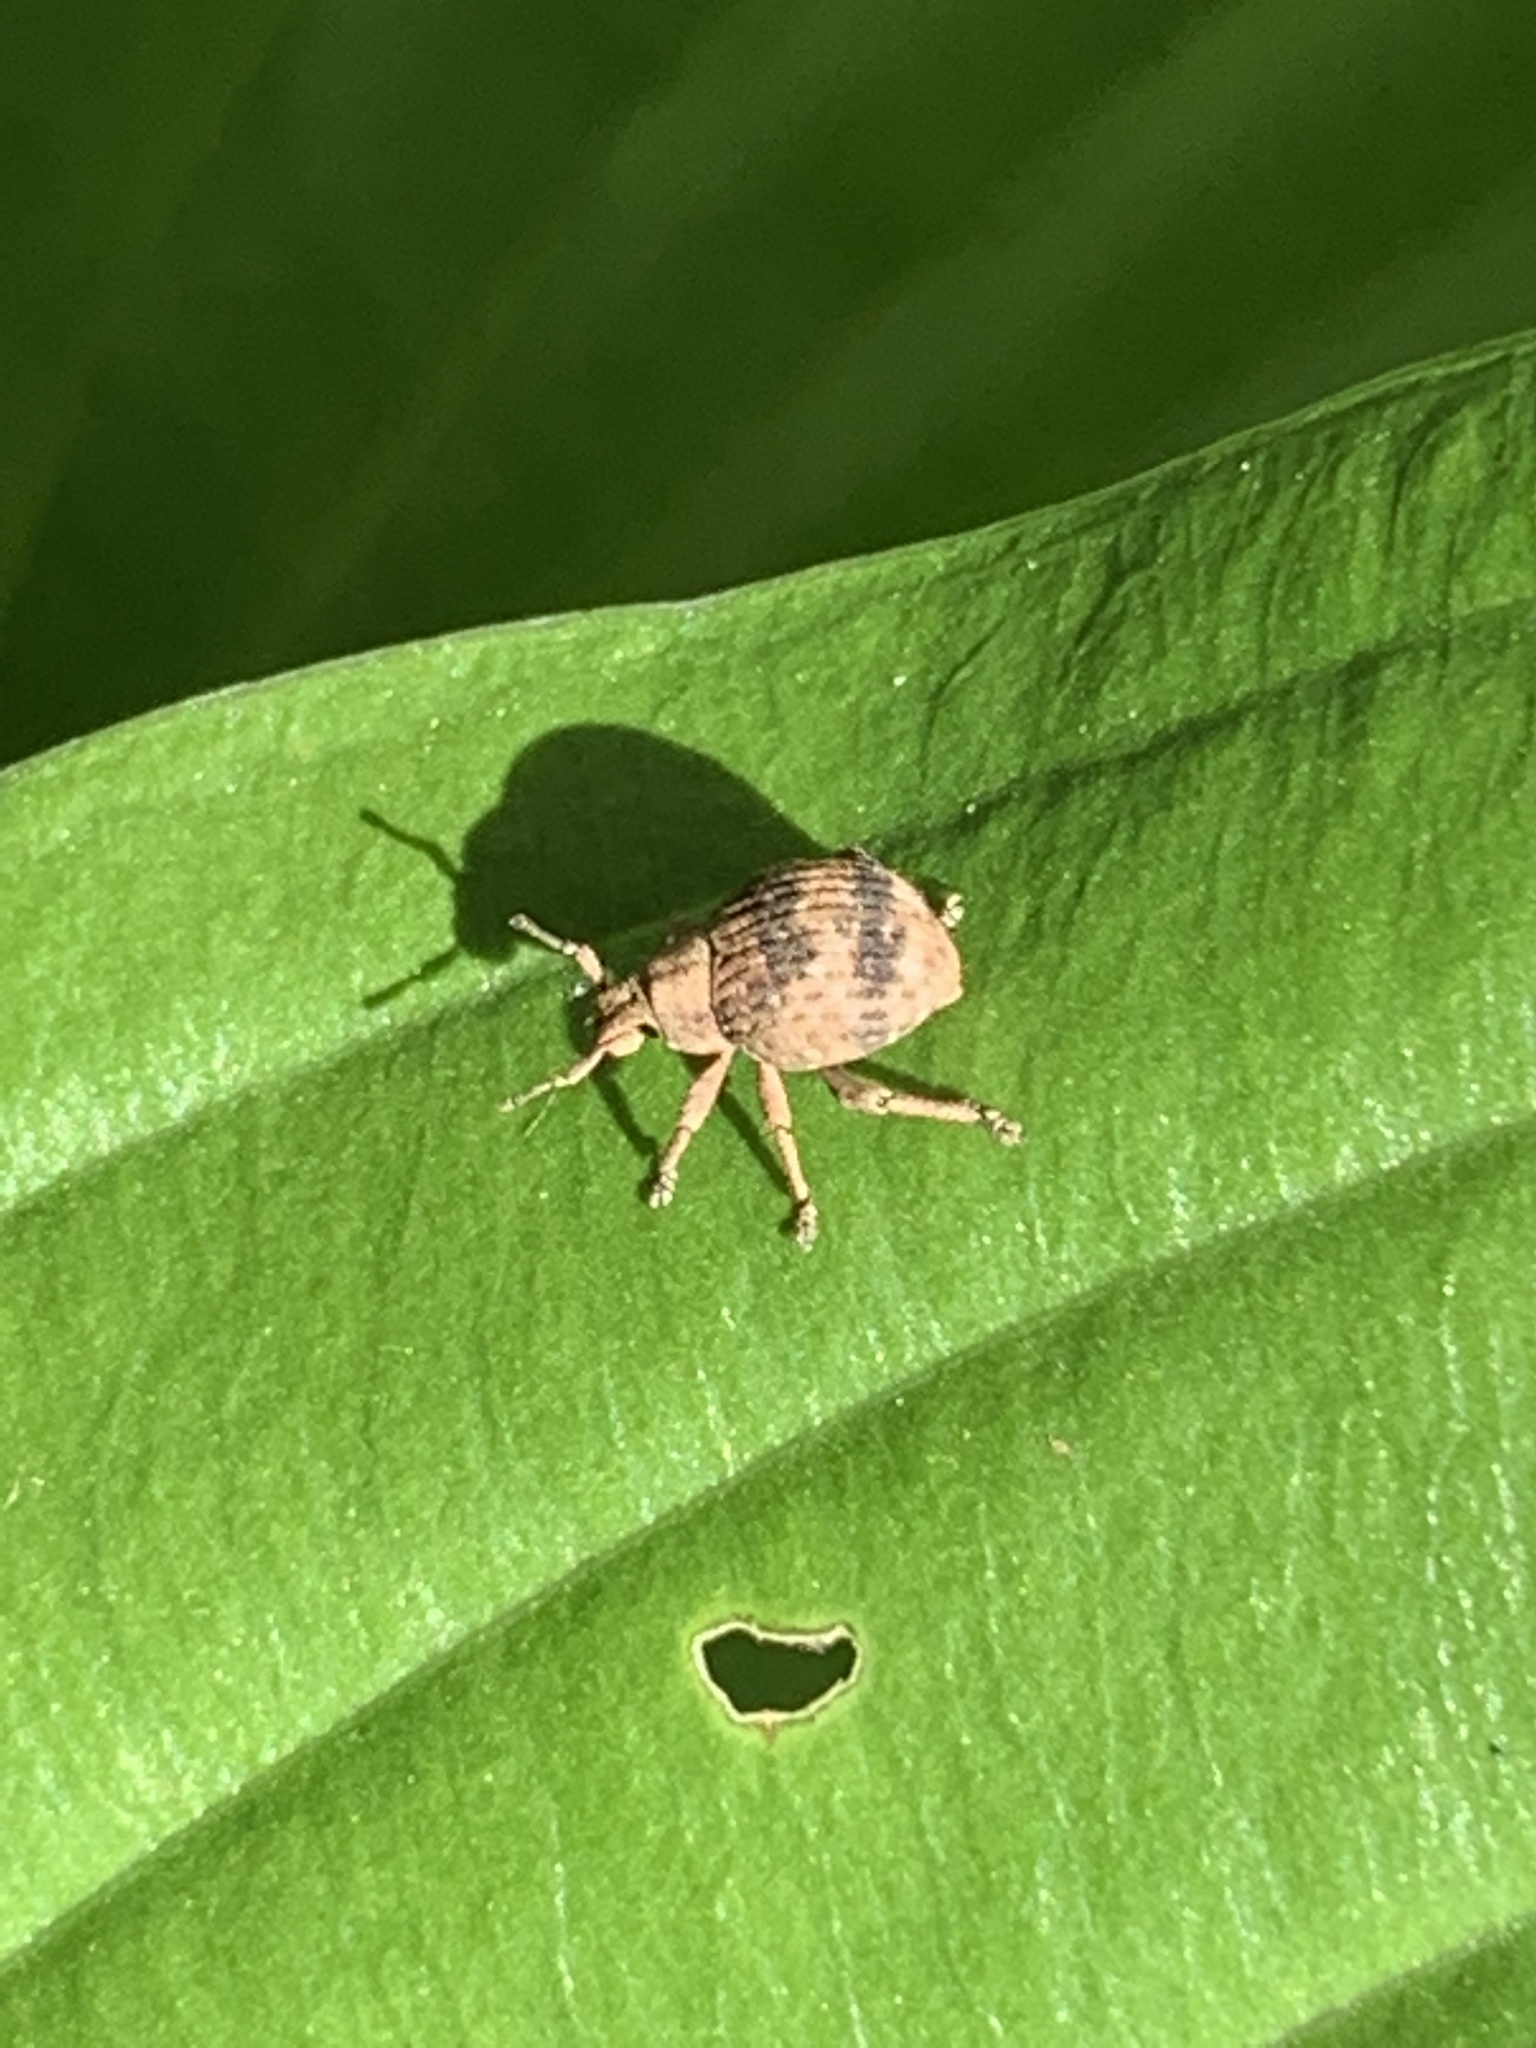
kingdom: Animalia
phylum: Arthropoda
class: Insecta
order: Coleoptera
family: Curculionidae
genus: Pseudocneorhinus
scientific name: Pseudocneorhinus bifasciatus
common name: Two-banded japanese weevil
